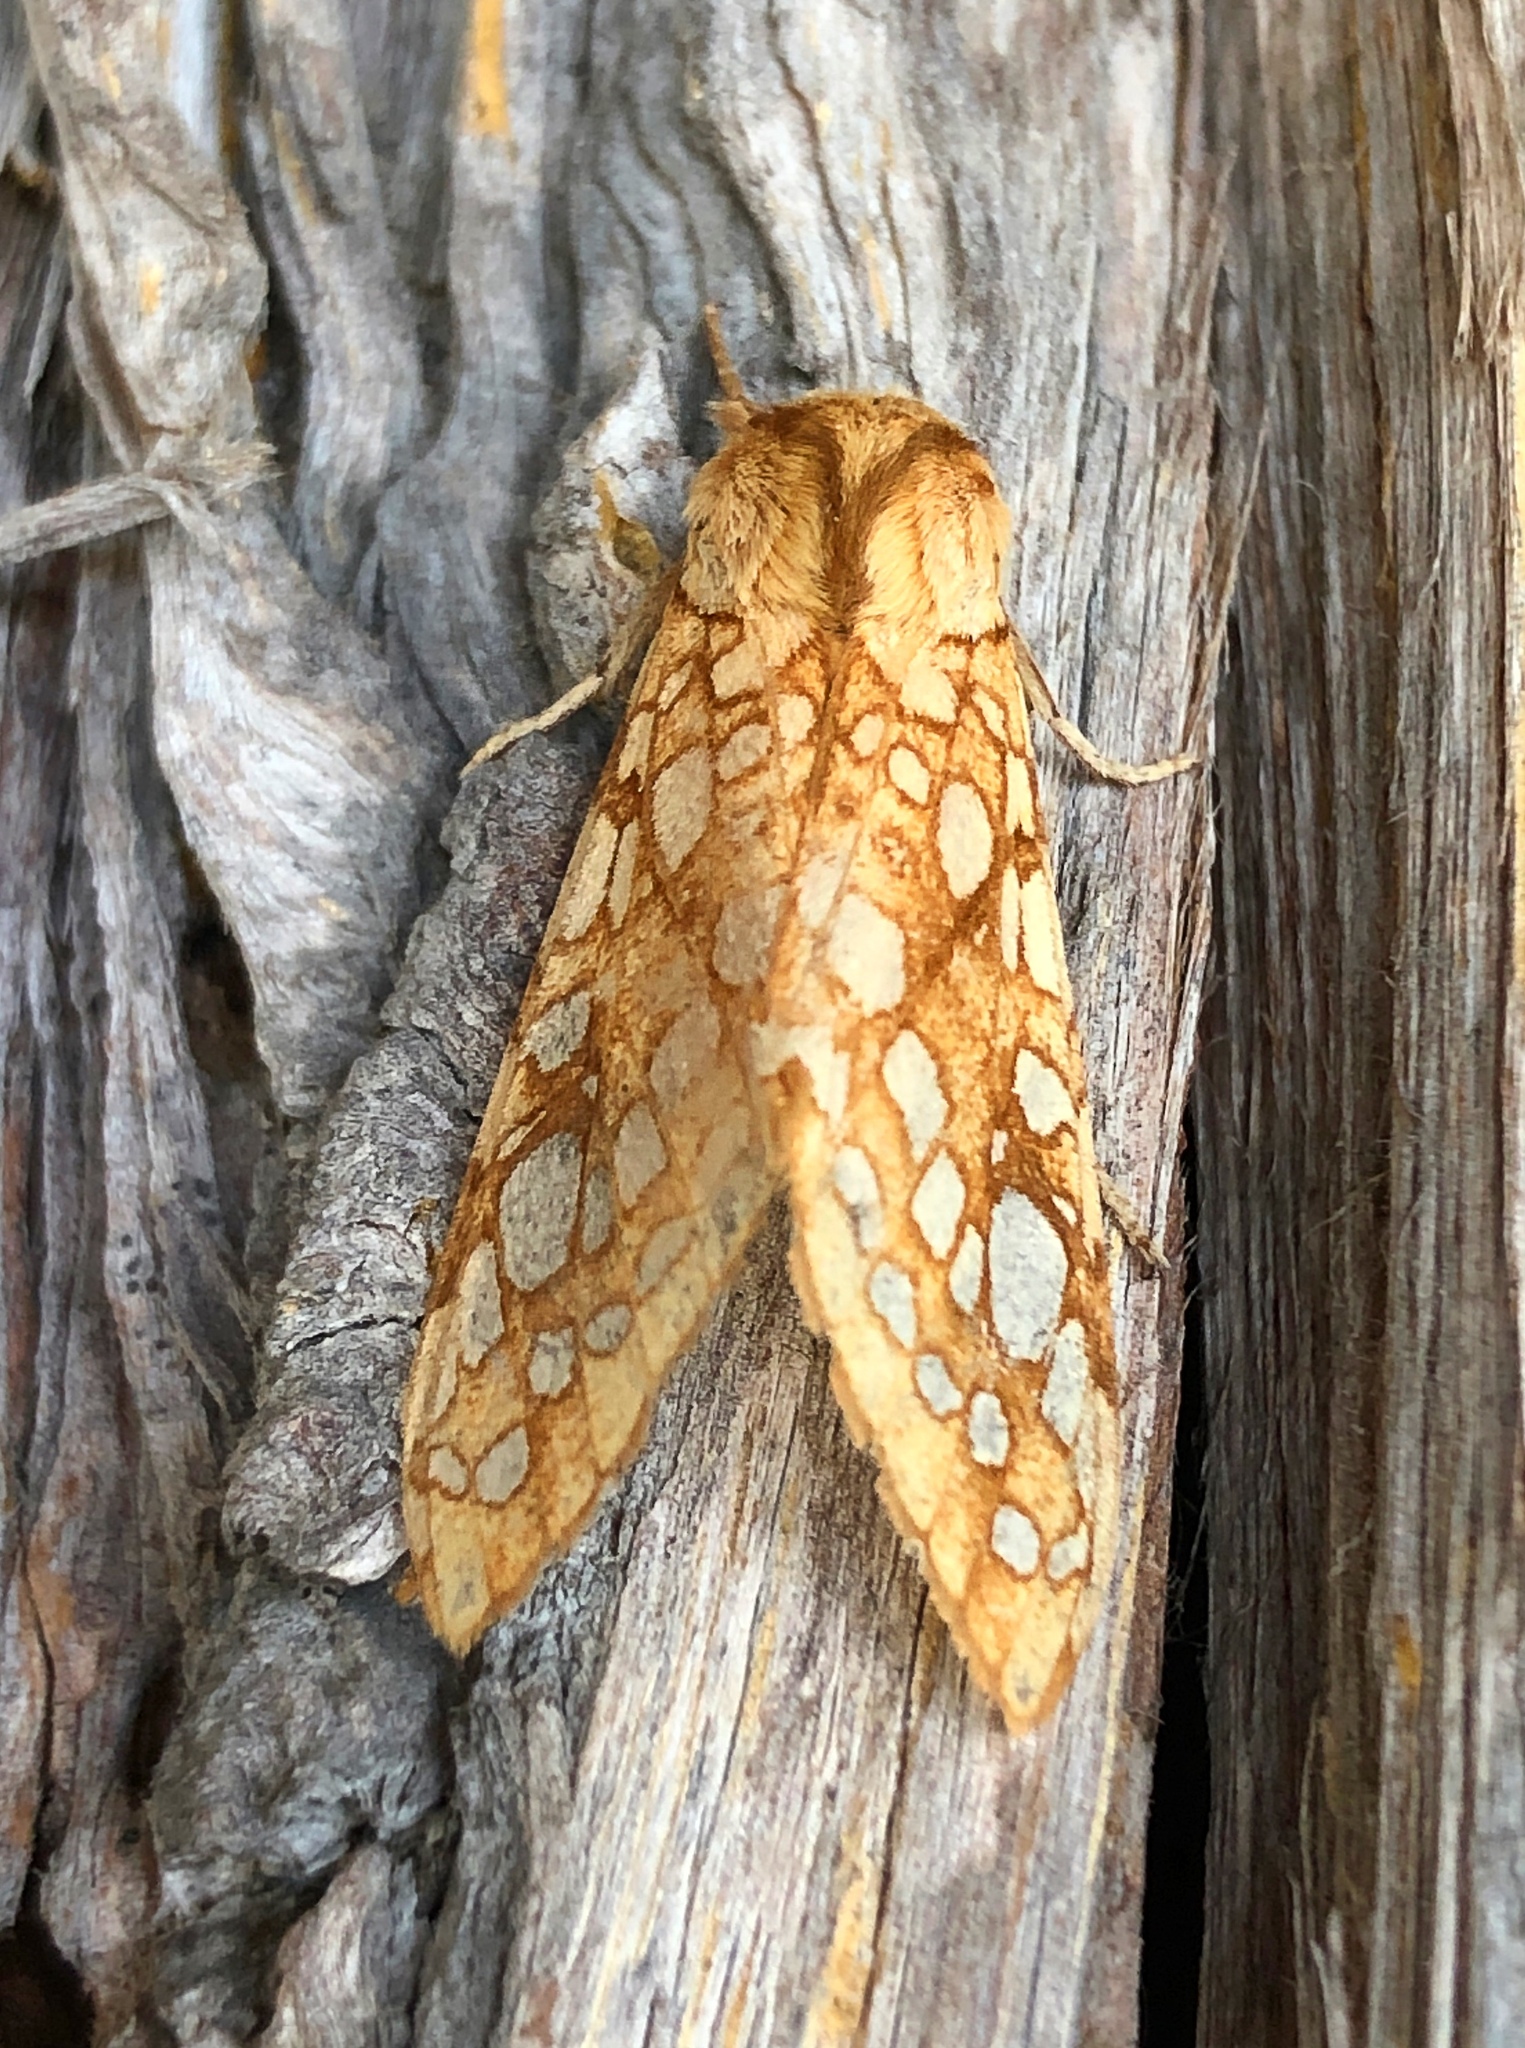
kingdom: Animalia
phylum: Arthropoda
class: Insecta
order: Lepidoptera
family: Erebidae
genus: Lophocampa
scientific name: Lophocampa caryae
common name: Hickory tussock moth
